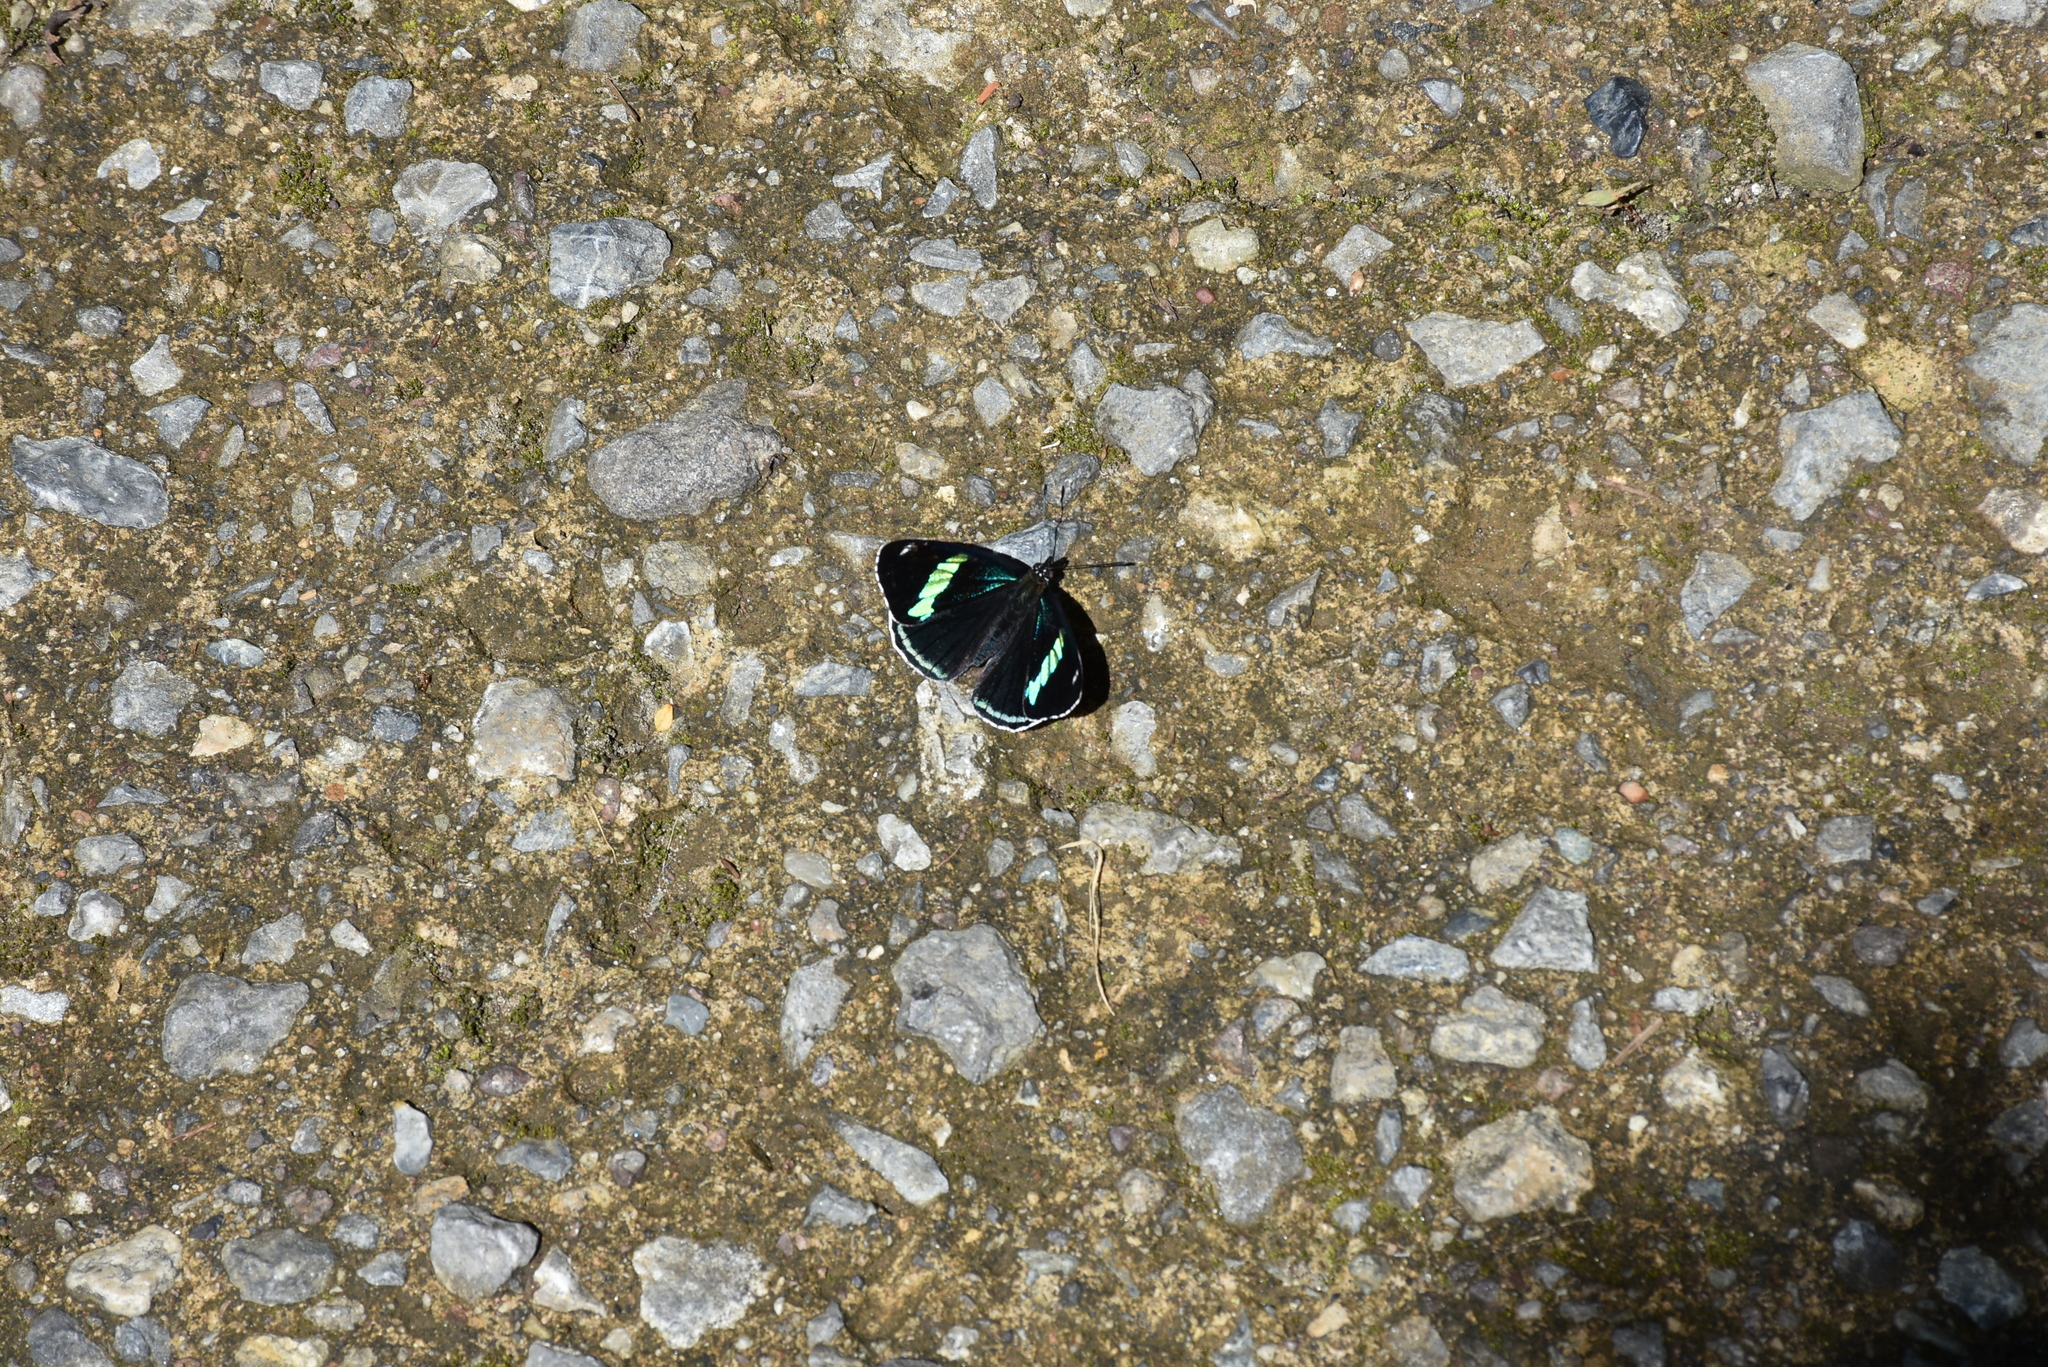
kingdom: Animalia
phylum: Arthropoda
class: Insecta
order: Lepidoptera
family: Nymphalidae
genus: Diaethria
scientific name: Diaethria anna
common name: Anna’s eighty-eight
